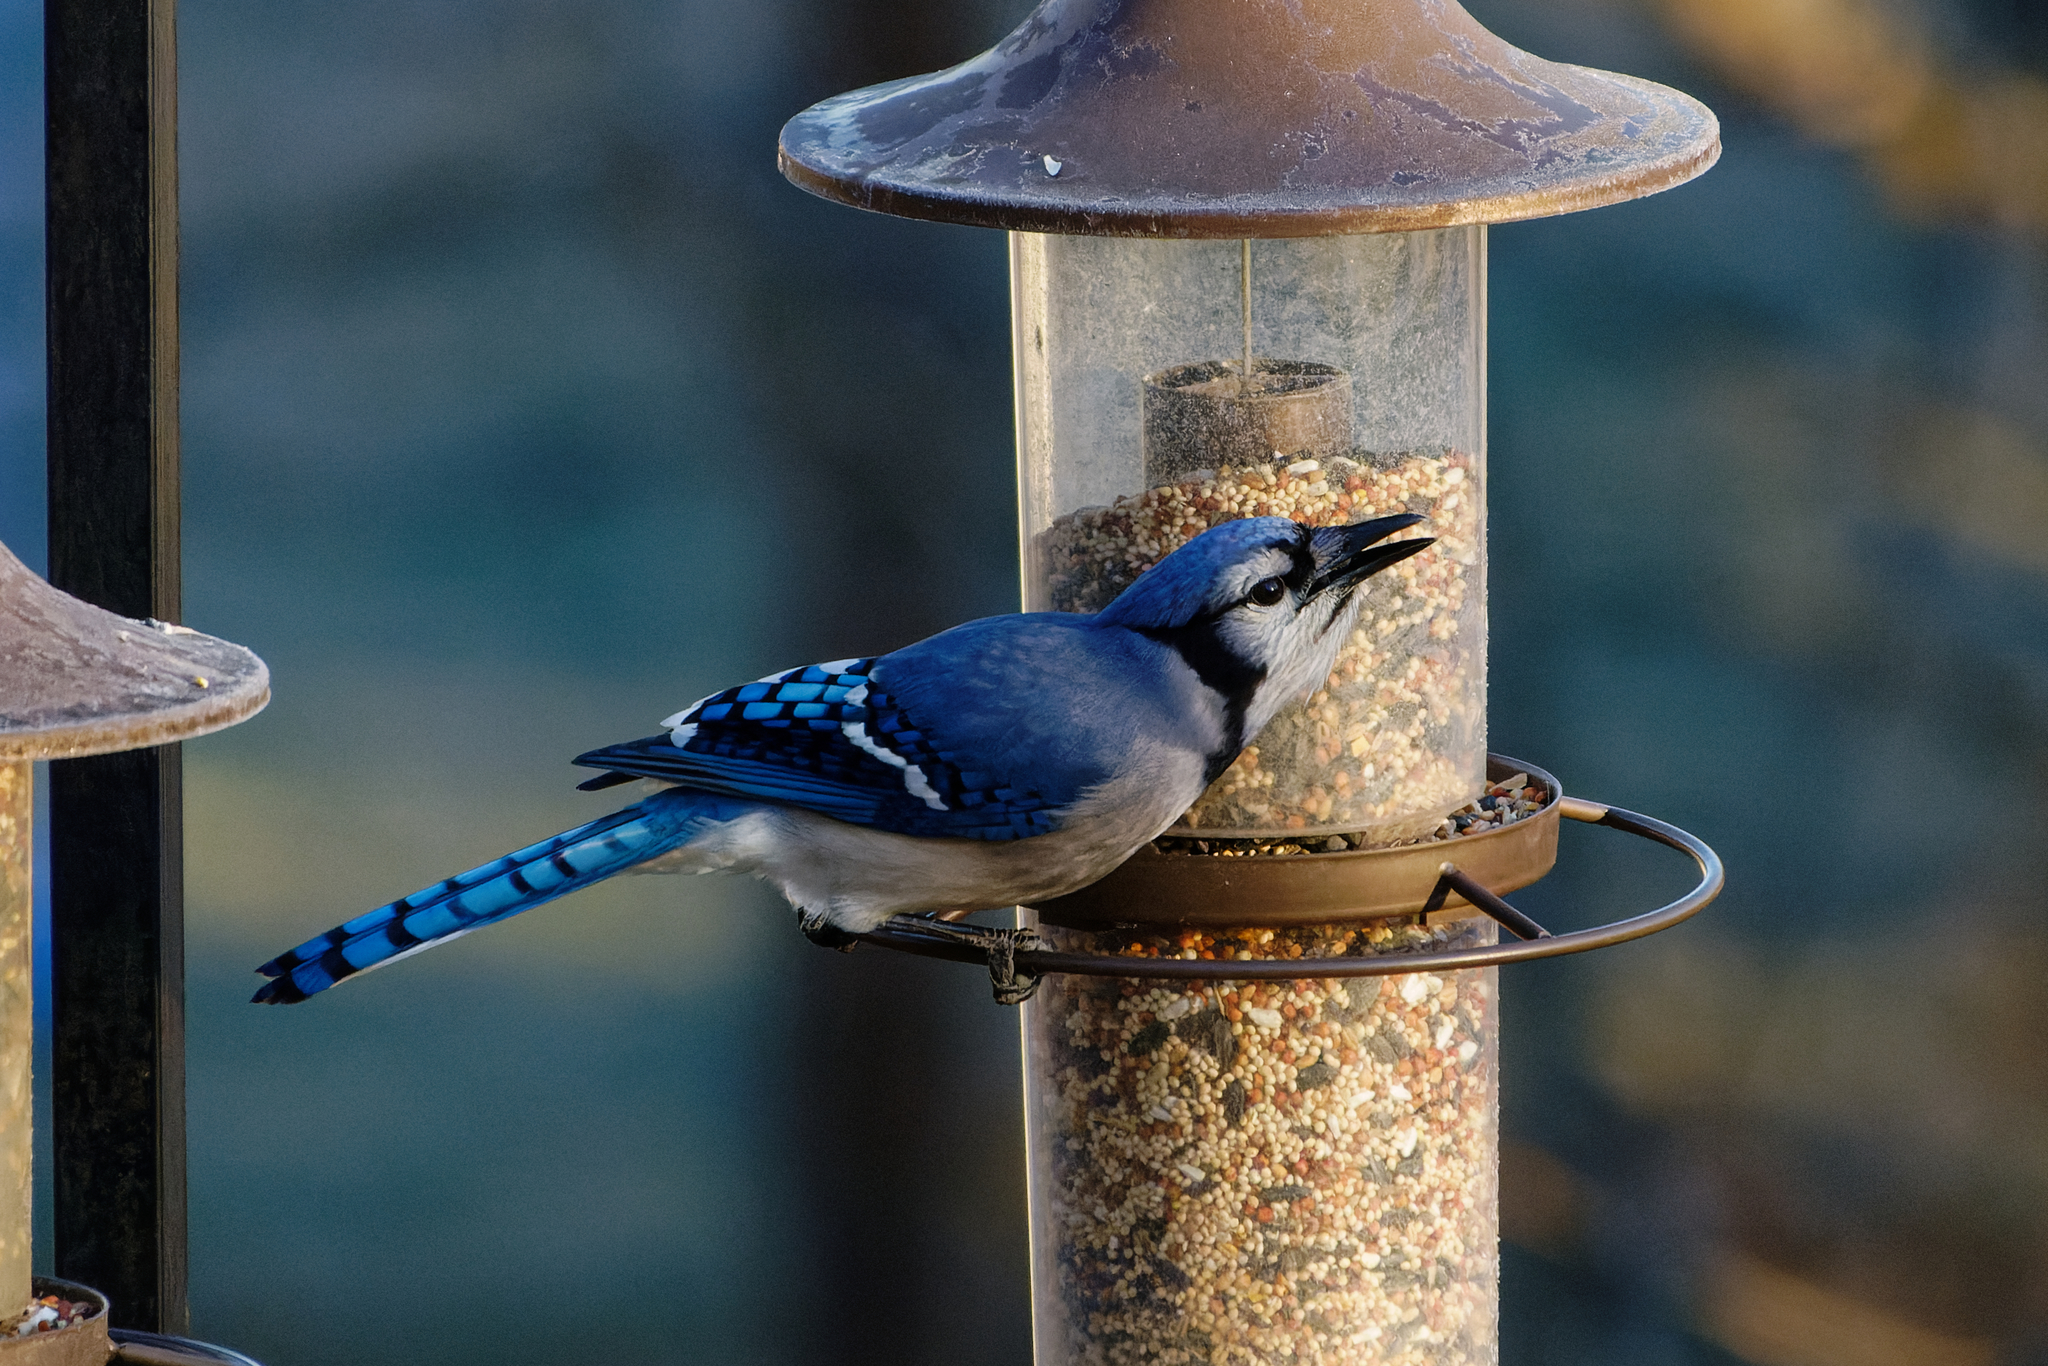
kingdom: Animalia
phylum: Chordata
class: Aves
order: Passeriformes
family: Corvidae
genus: Cyanocitta
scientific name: Cyanocitta cristata
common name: Blue jay
